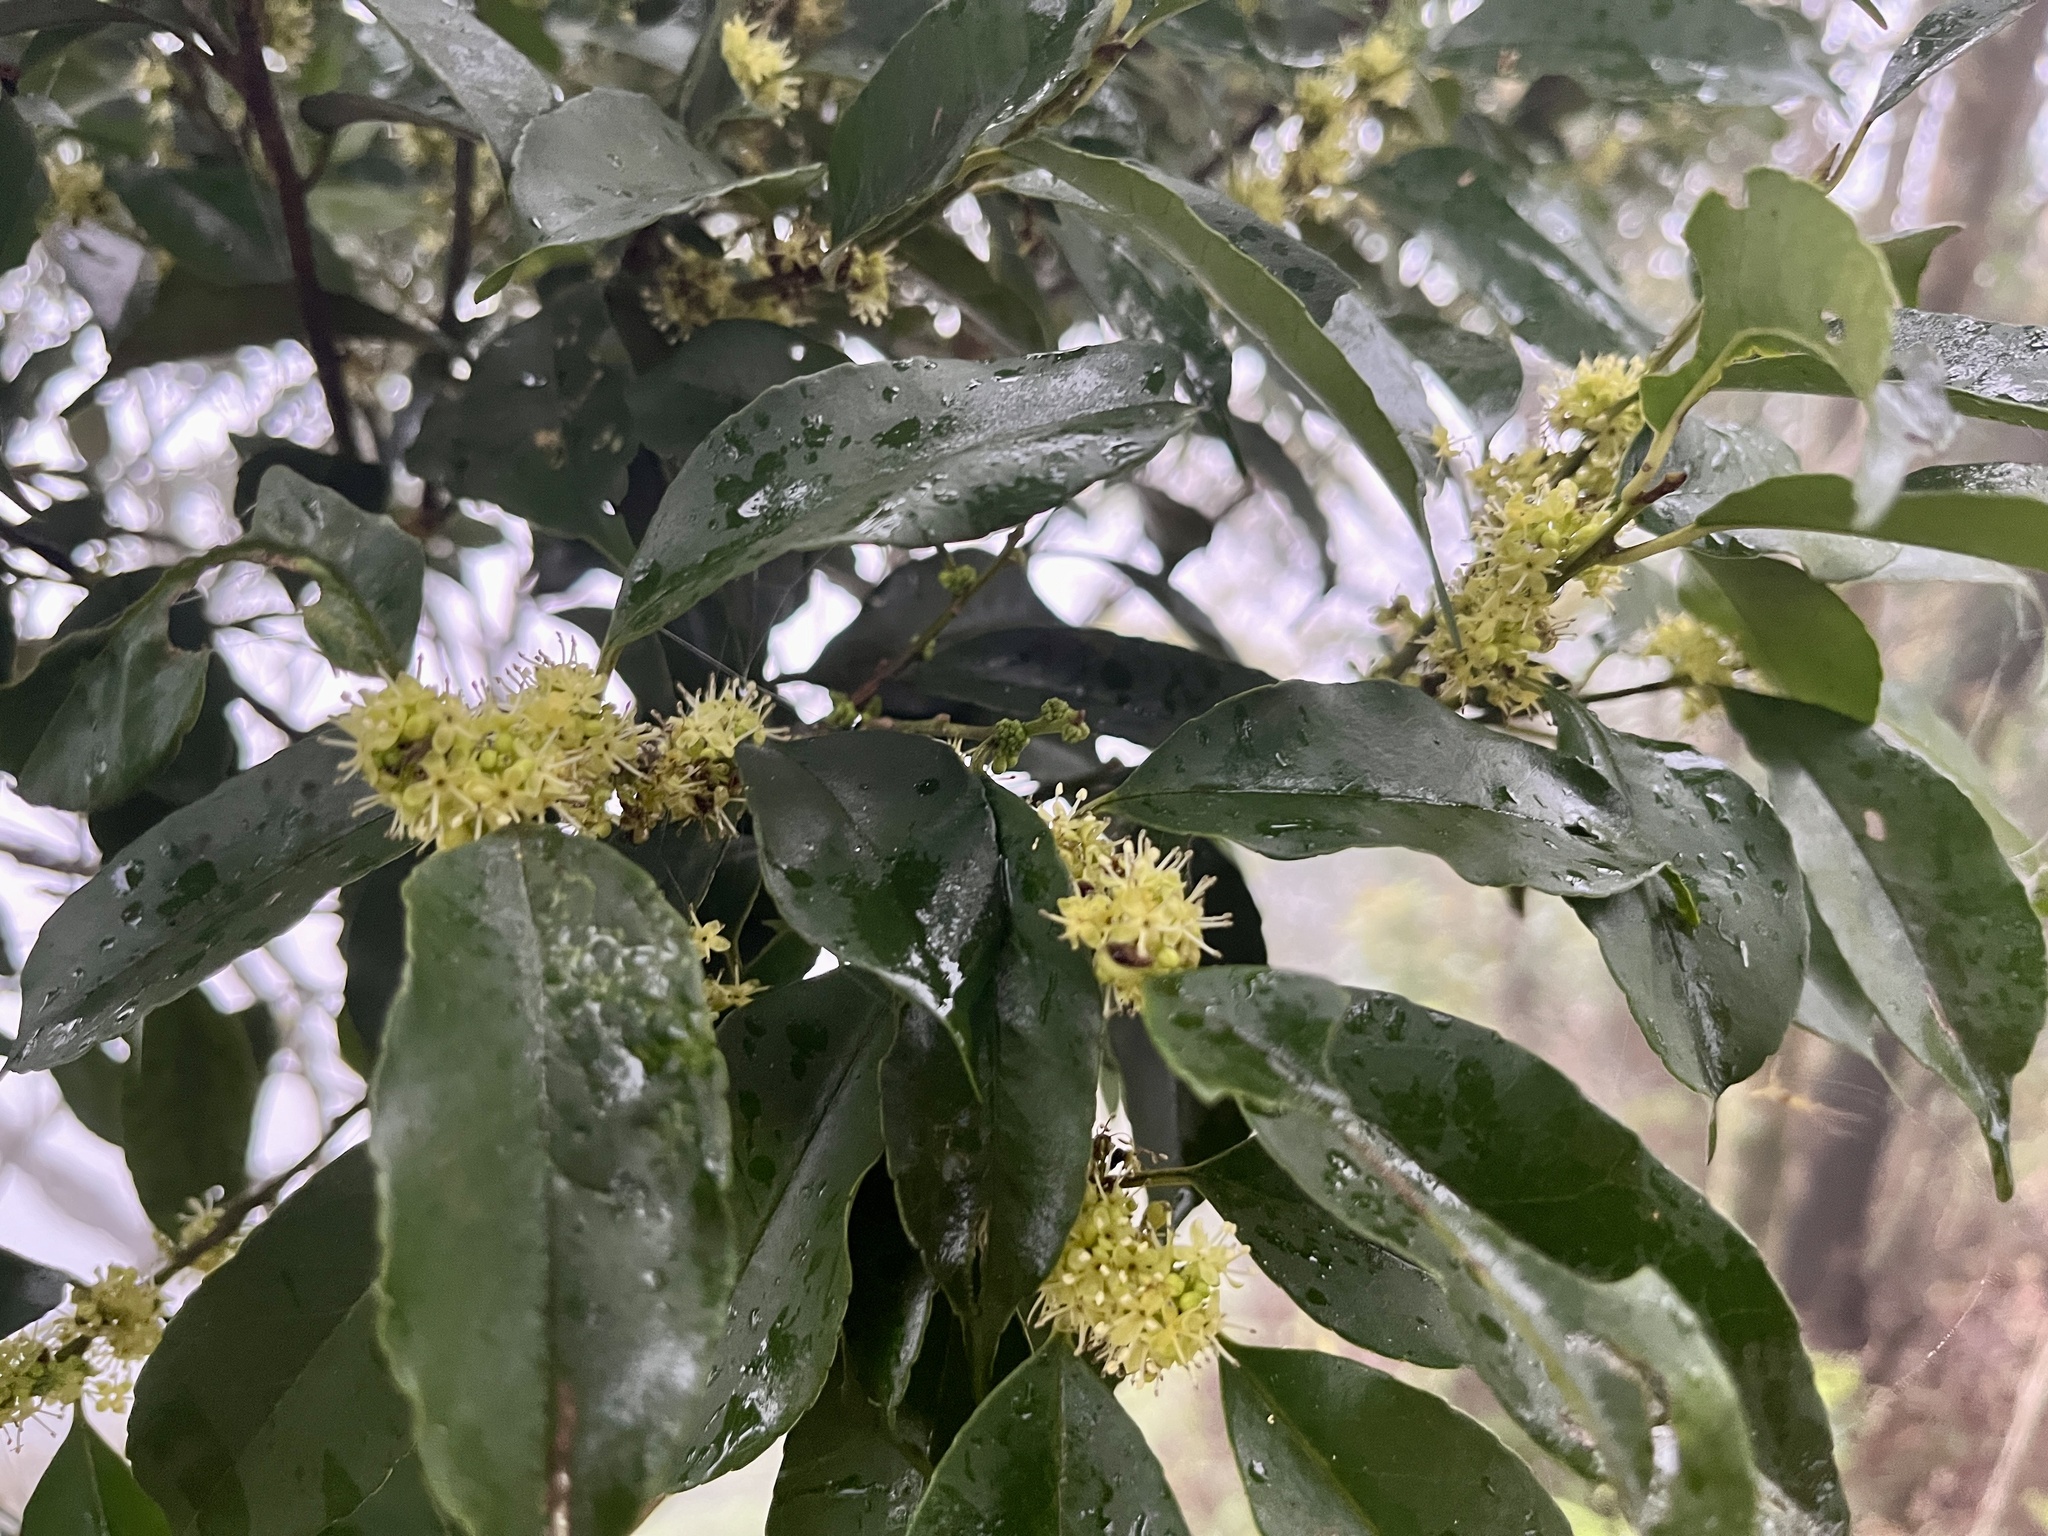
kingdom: Plantae
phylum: Tracheophyta
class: Magnoliopsida
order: Aquifoliales
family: Aquifoliaceae
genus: Ilex
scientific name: Ilex ficoidea
